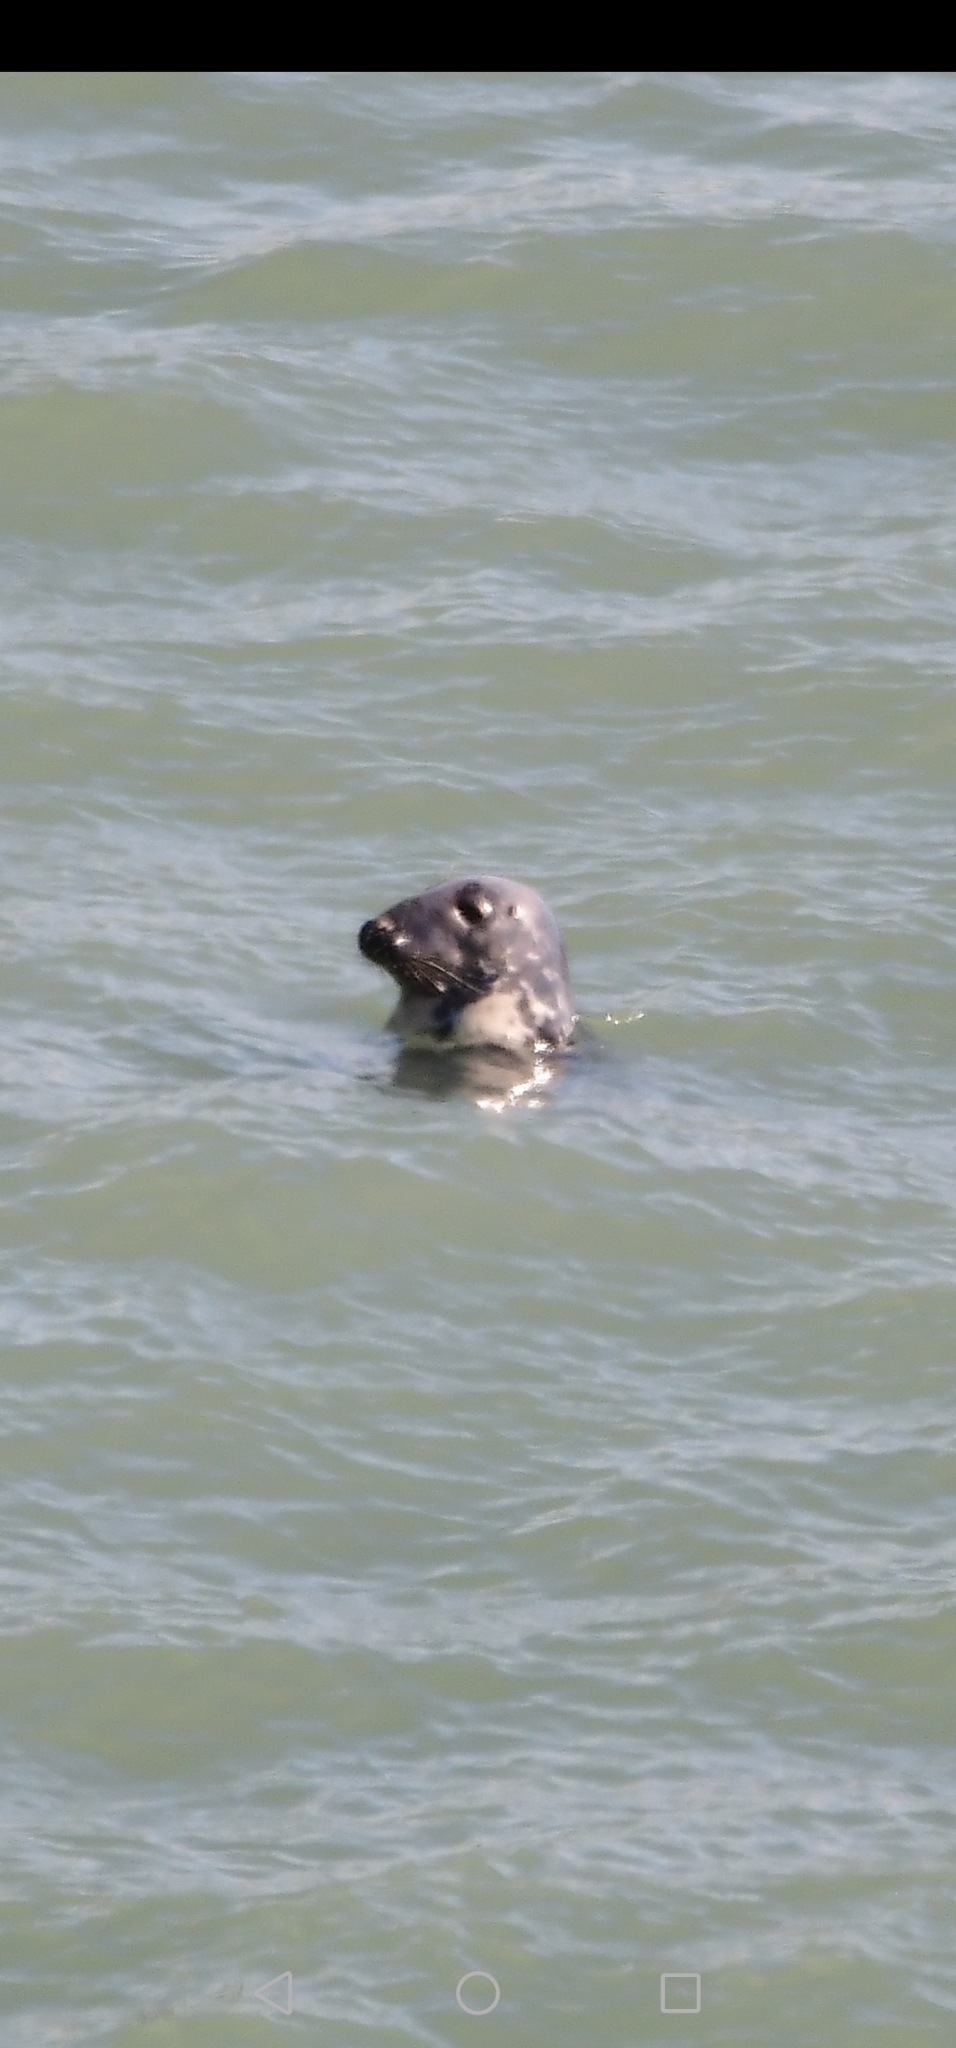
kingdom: Animalia
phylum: Chordata
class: Mammalia
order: Carnivora
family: Phocidae
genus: Halichoerus
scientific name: Halichoerus grypus
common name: Grey seal
